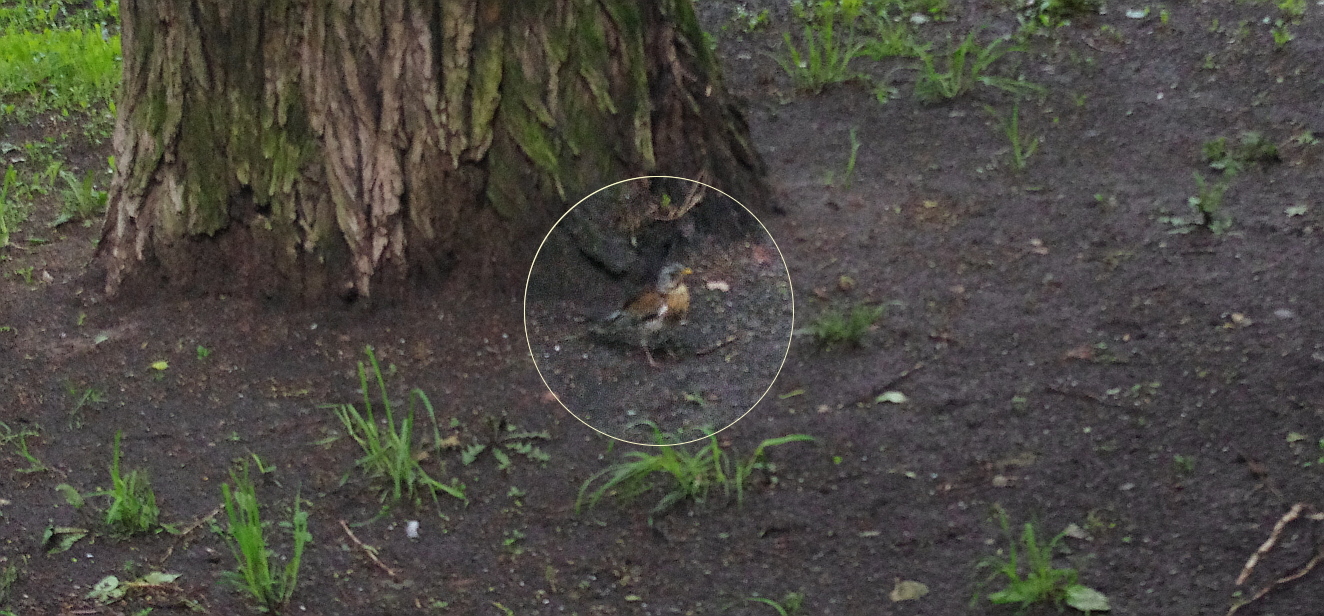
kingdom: Animalia
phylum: Chordata
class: Aves
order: Passeriformes
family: Turdidae
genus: Turdus
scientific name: Turdus pilaris
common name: Fieldfare
